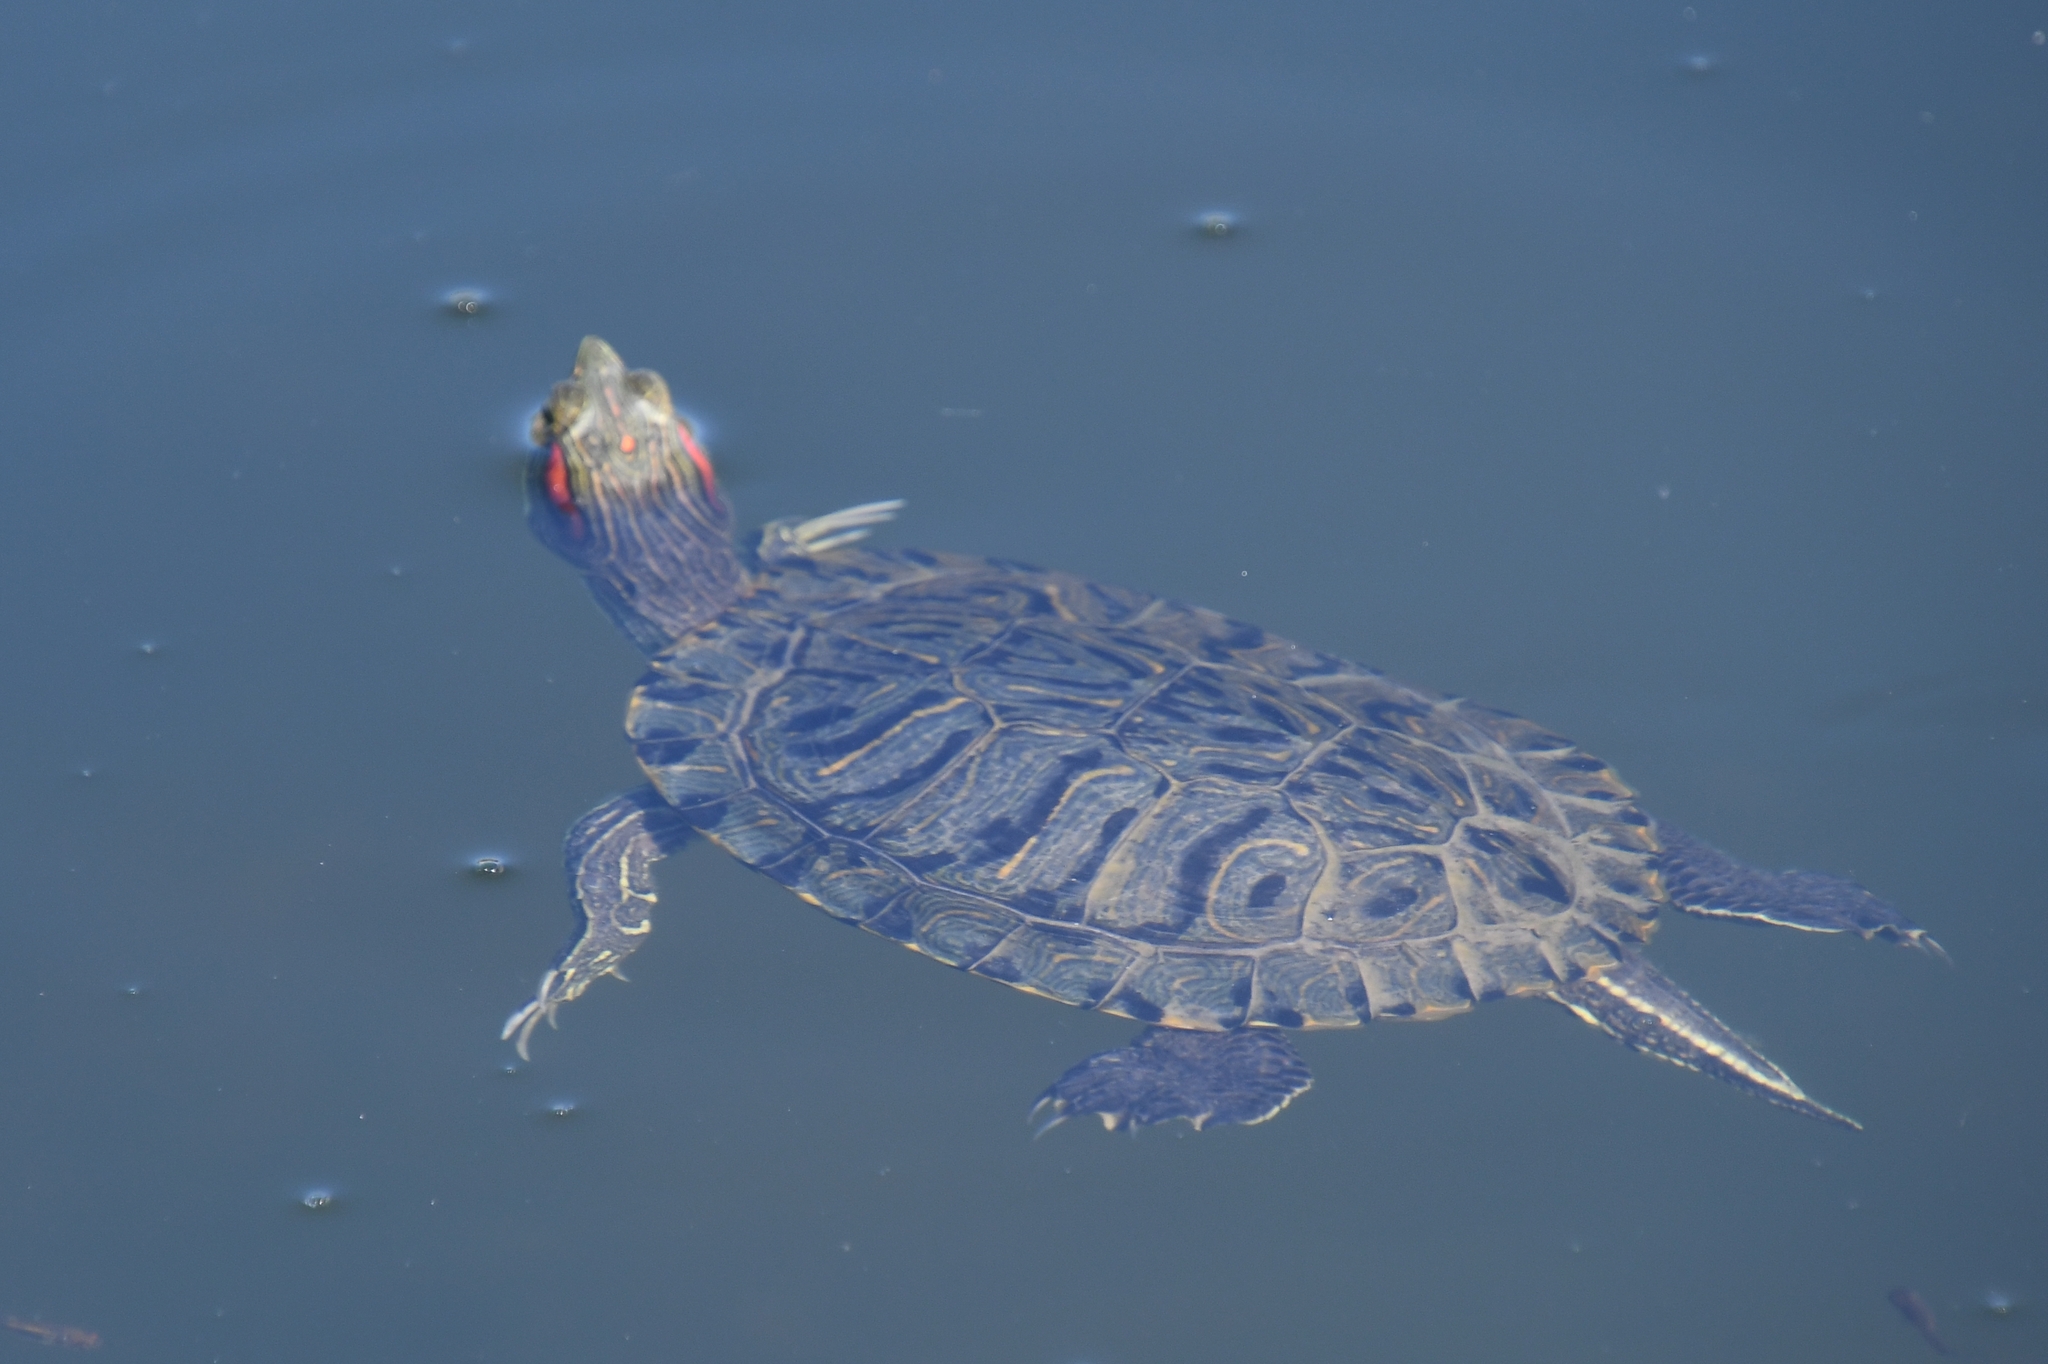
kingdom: Animalia
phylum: Chordata
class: Testudines
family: Emydidae
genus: Trachemys
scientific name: Trachemys scripta
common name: Slider
